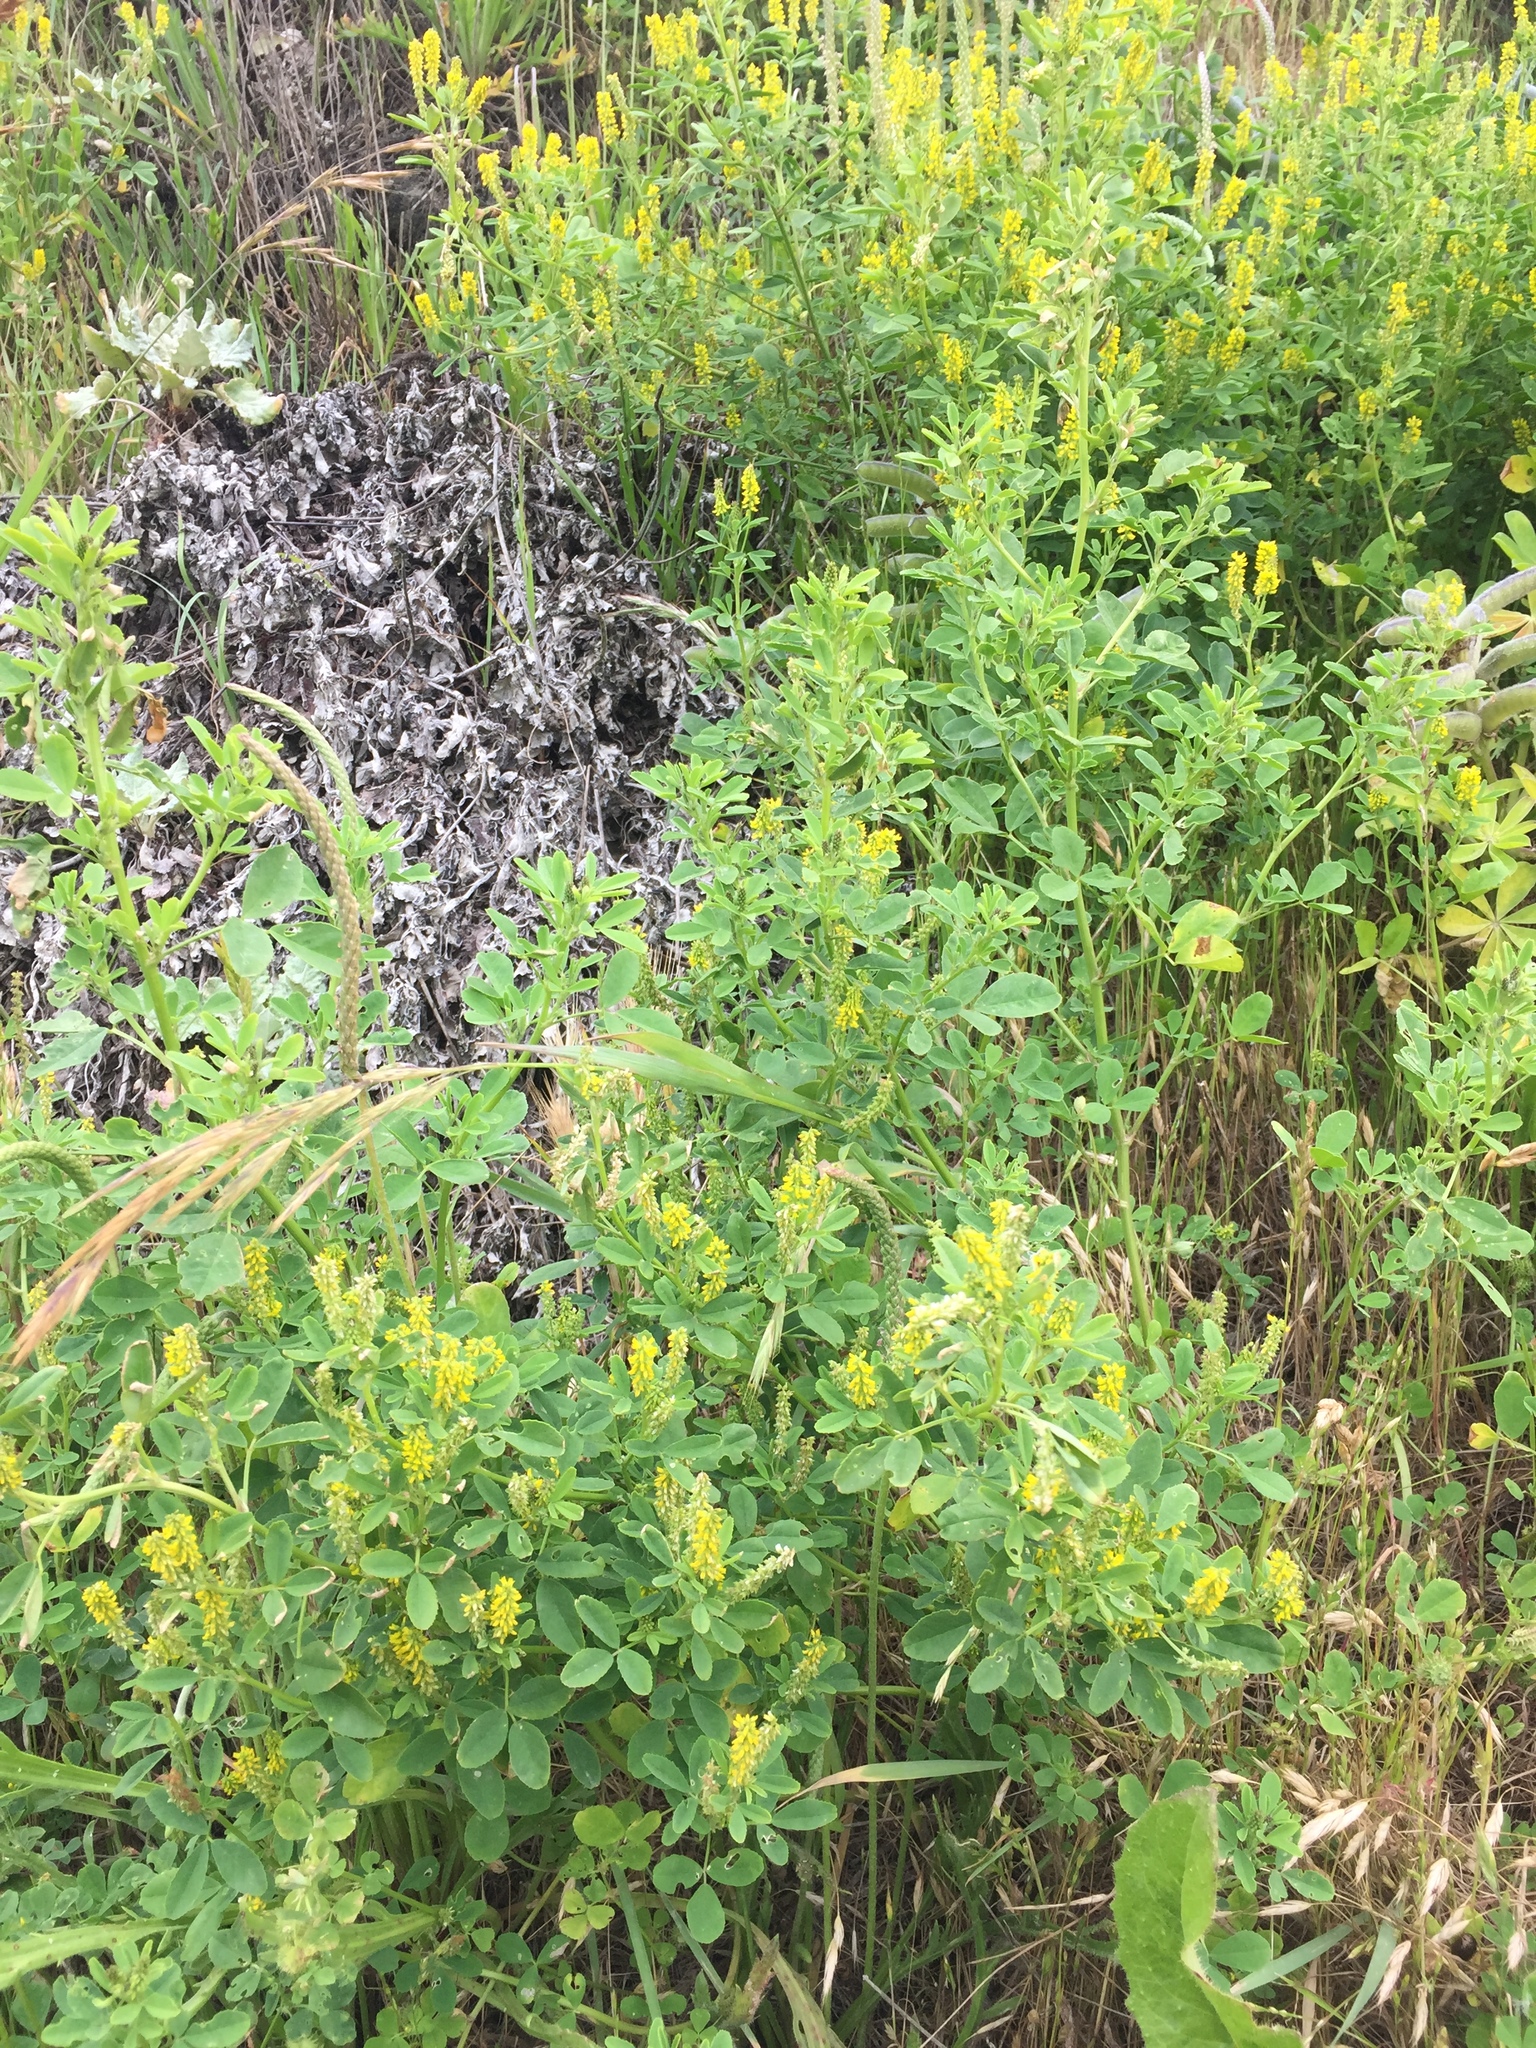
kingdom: Plantae
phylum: Tracheophyta
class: Magnoliopsida
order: Fabales
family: Fabaceae
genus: Melilotus
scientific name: Melilotus indicus
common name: Small melilot
